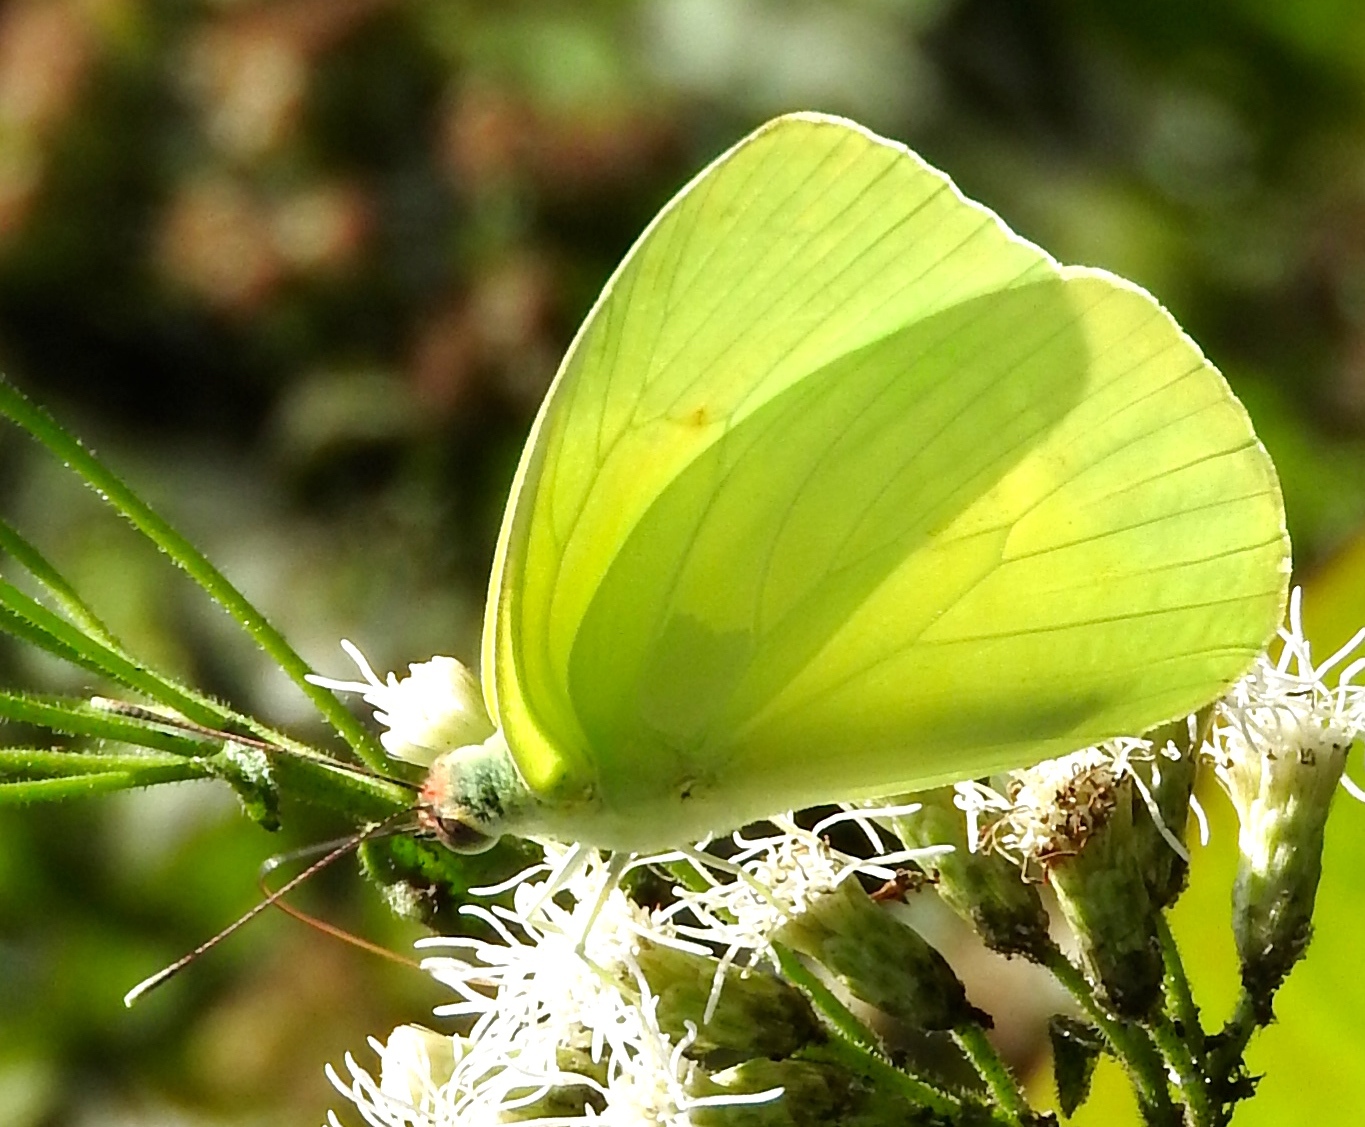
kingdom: Animalia
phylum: Arthropoda
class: Insecta
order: Lepidoptera
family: Pieridae
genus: Aphrissa
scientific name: Aphrissa statira
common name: Statira sulphur
